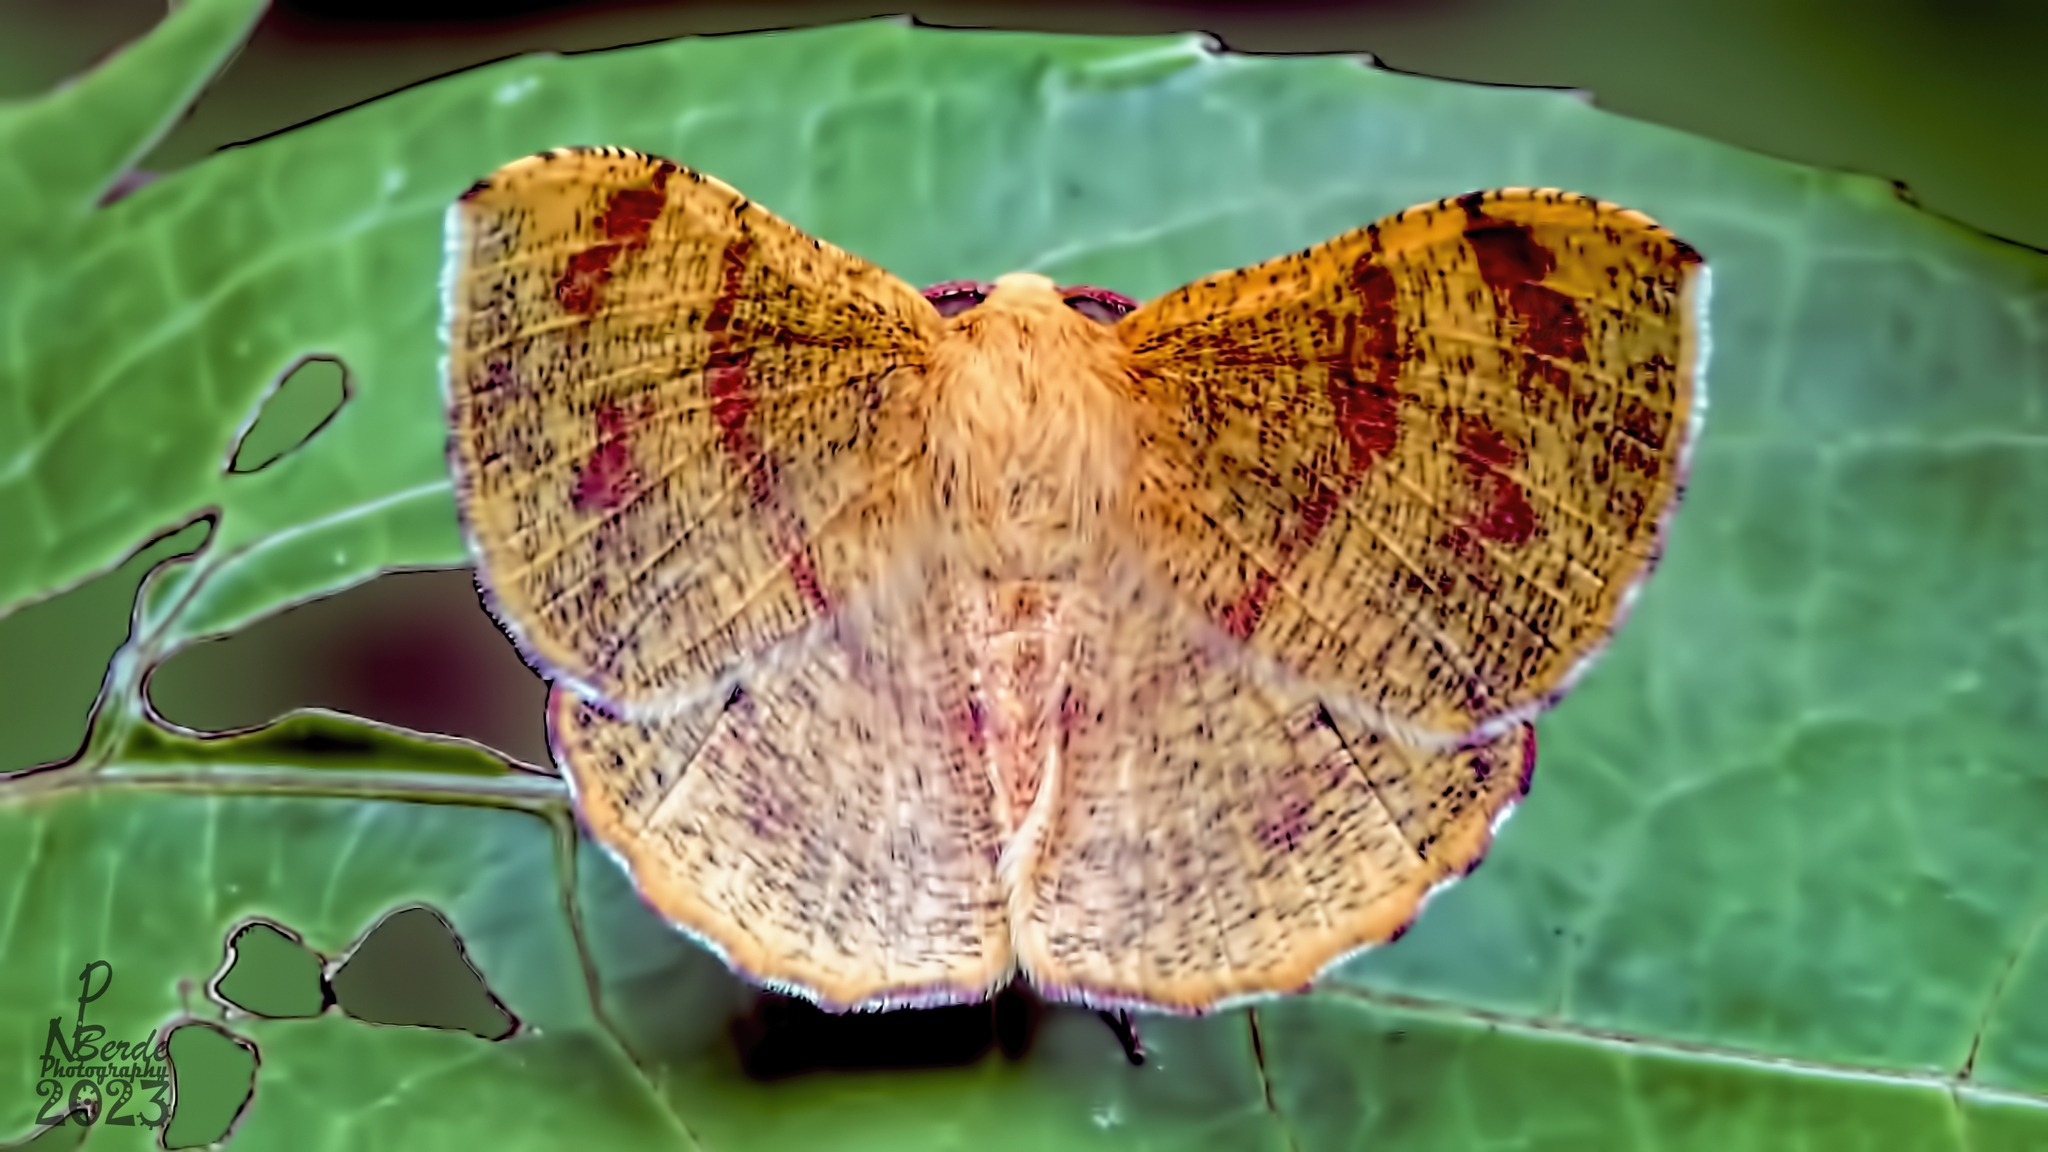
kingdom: Animalia
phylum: Arthropoda
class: Insecta
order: Lepidoptera
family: Geometridae
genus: Hyperythra
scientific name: Hyperythra lutea
